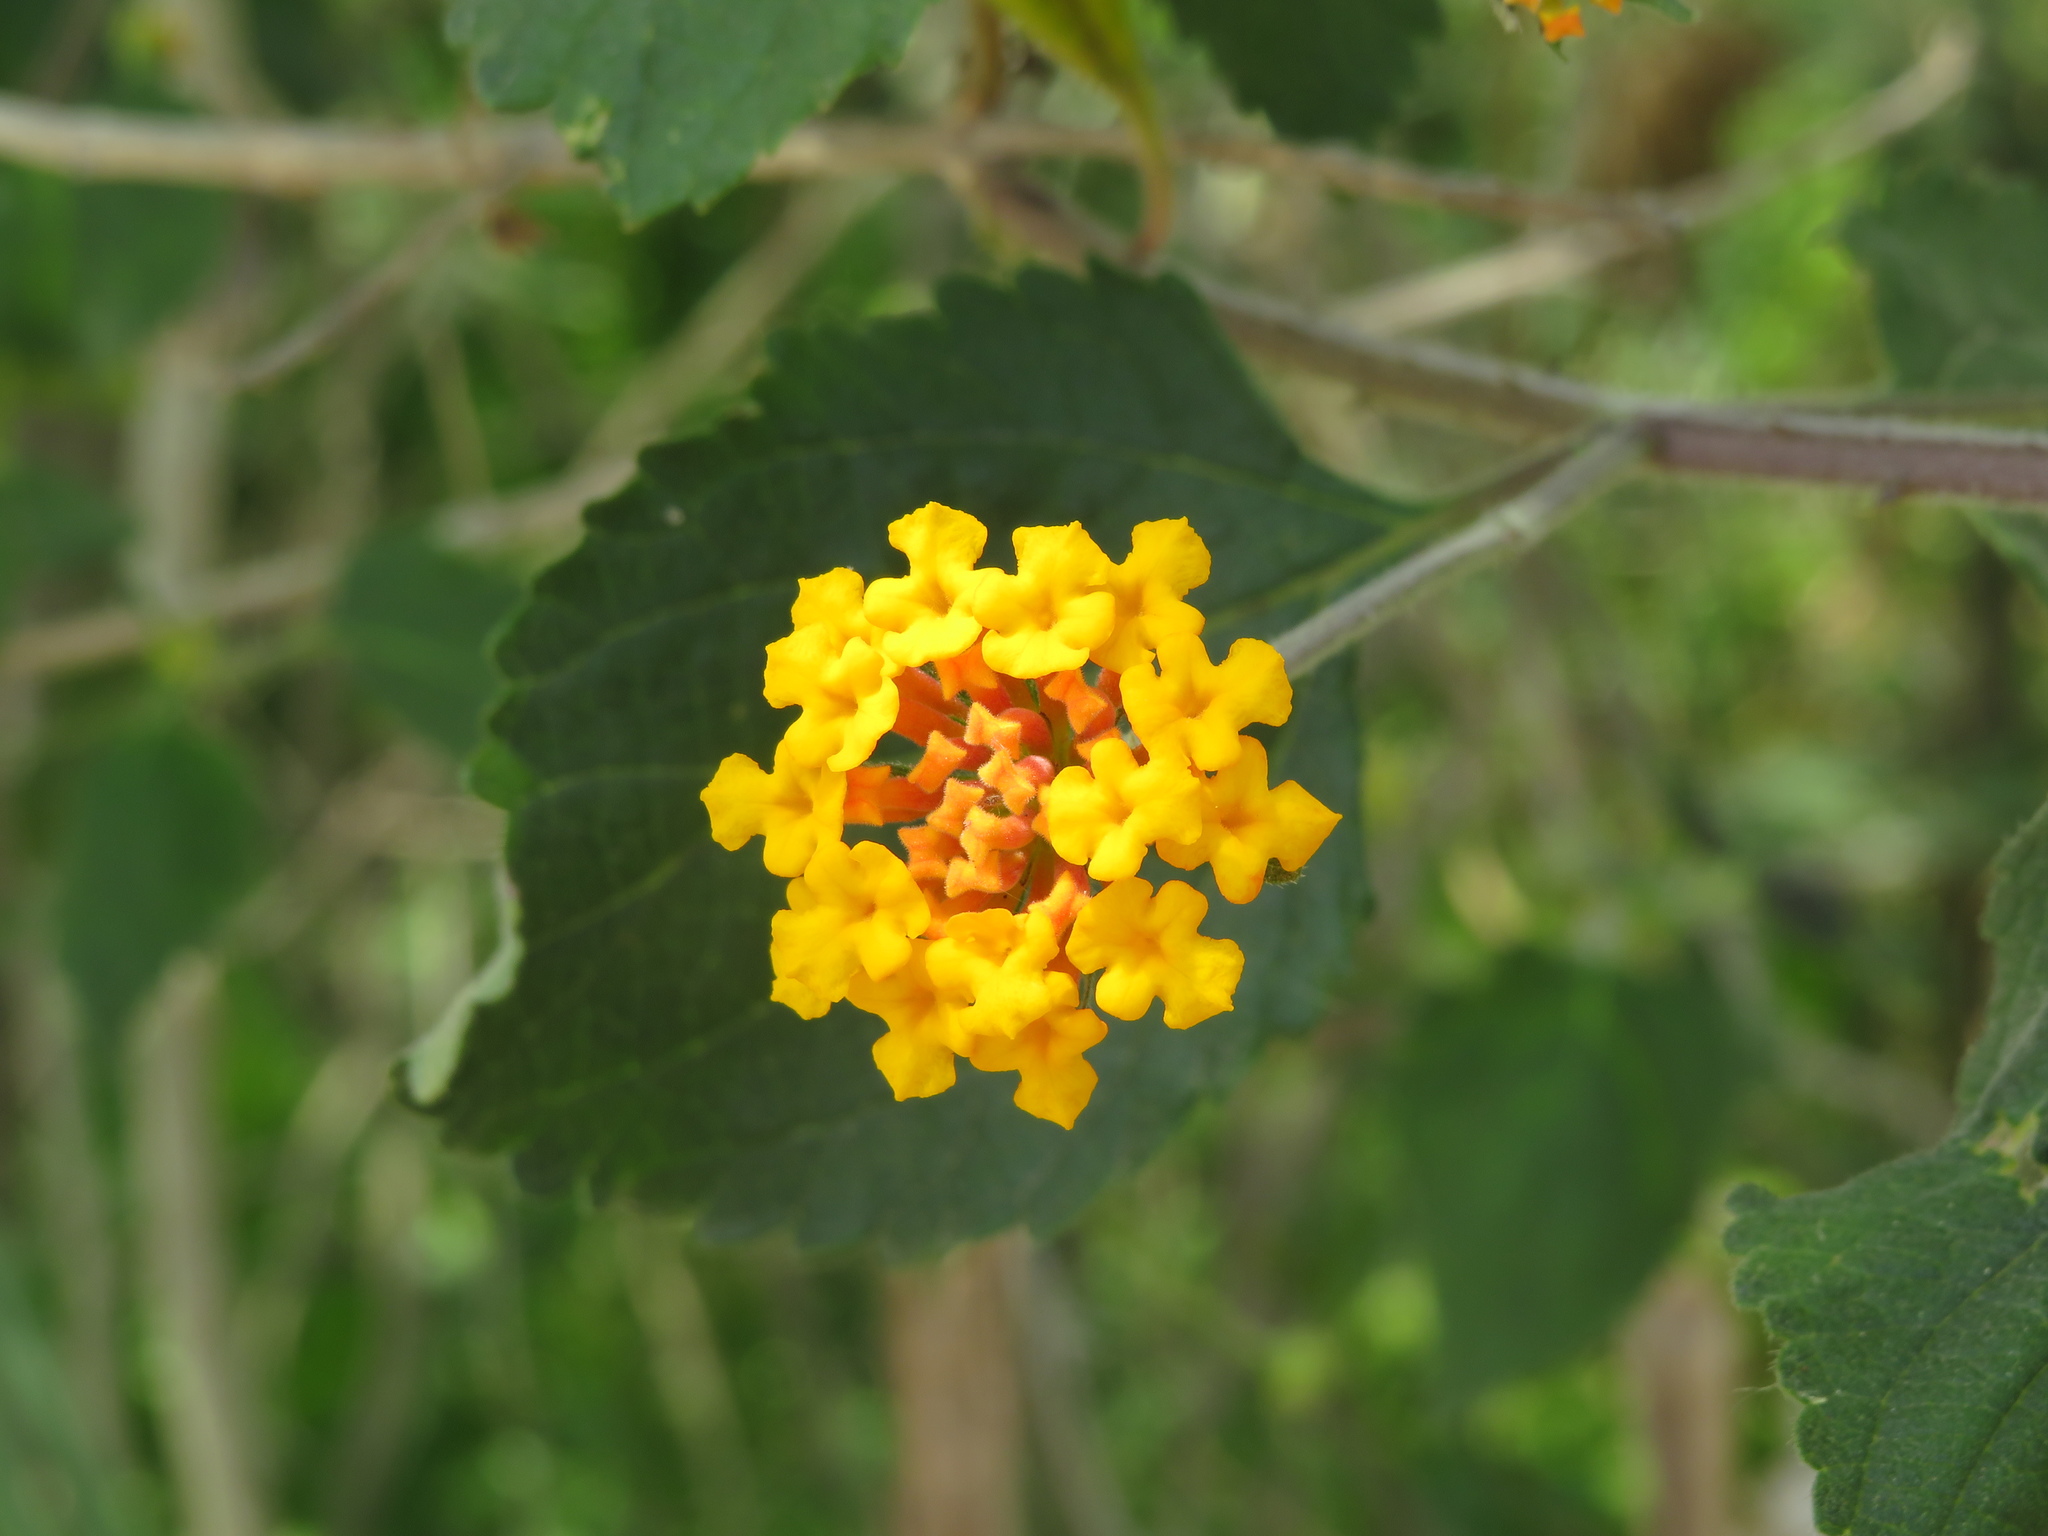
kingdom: Plantae
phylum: Tracheophyta
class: Magnoliopsida
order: Lamiales
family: Verbenaceae
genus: Lantana
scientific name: Lantana camara
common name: Lantana
